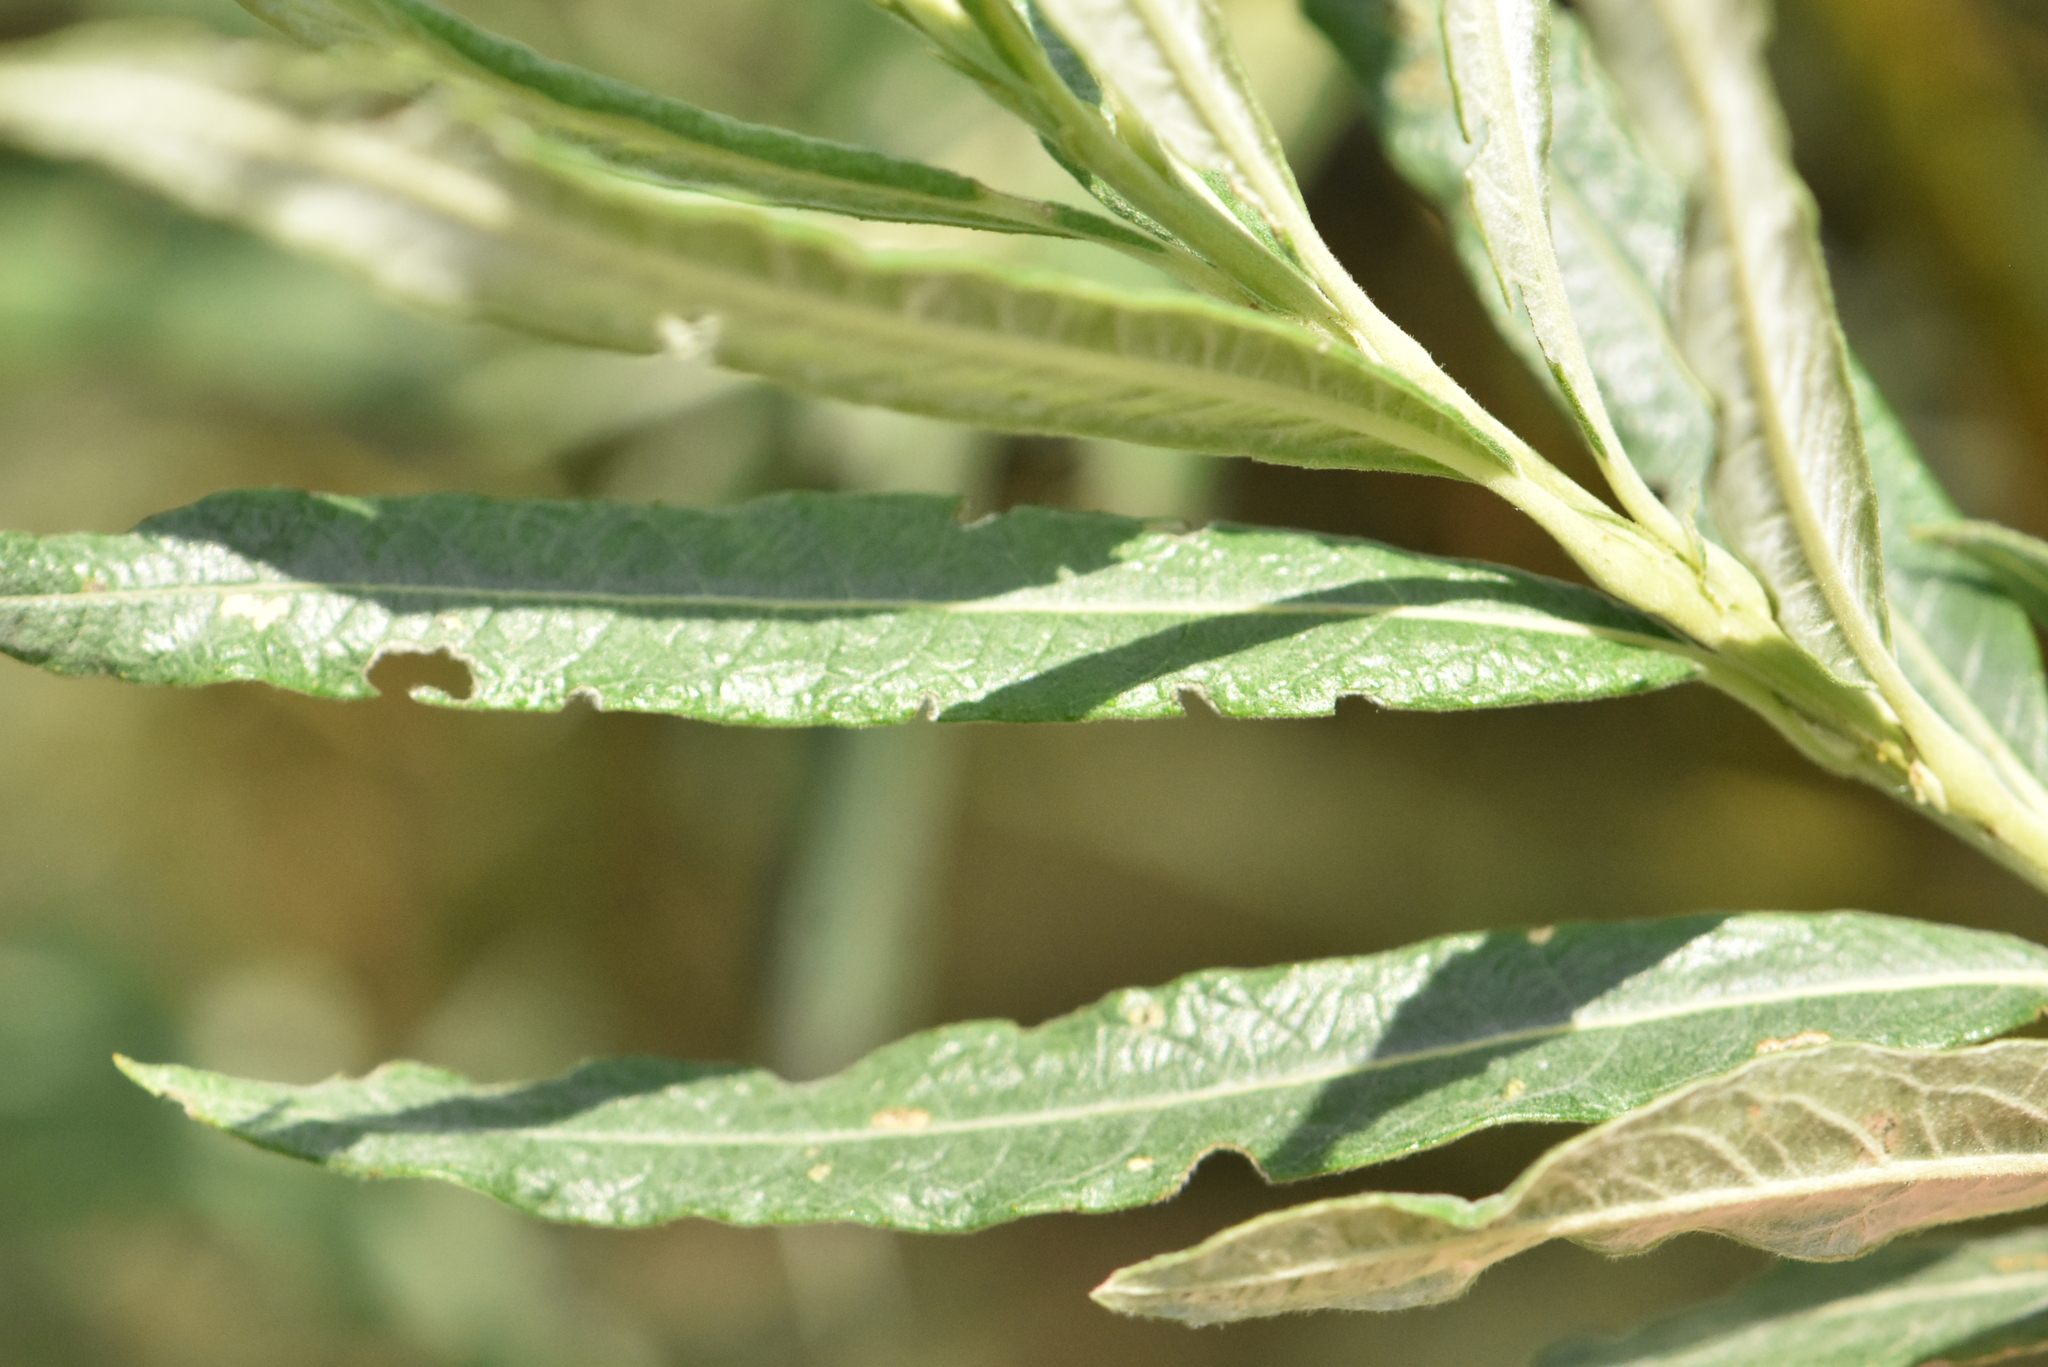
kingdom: Plantae
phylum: Tracheophyta
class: Magnoliopsida
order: Malpighiales
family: Salicaceae
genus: Salix
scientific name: Salix viminalis
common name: Osier
